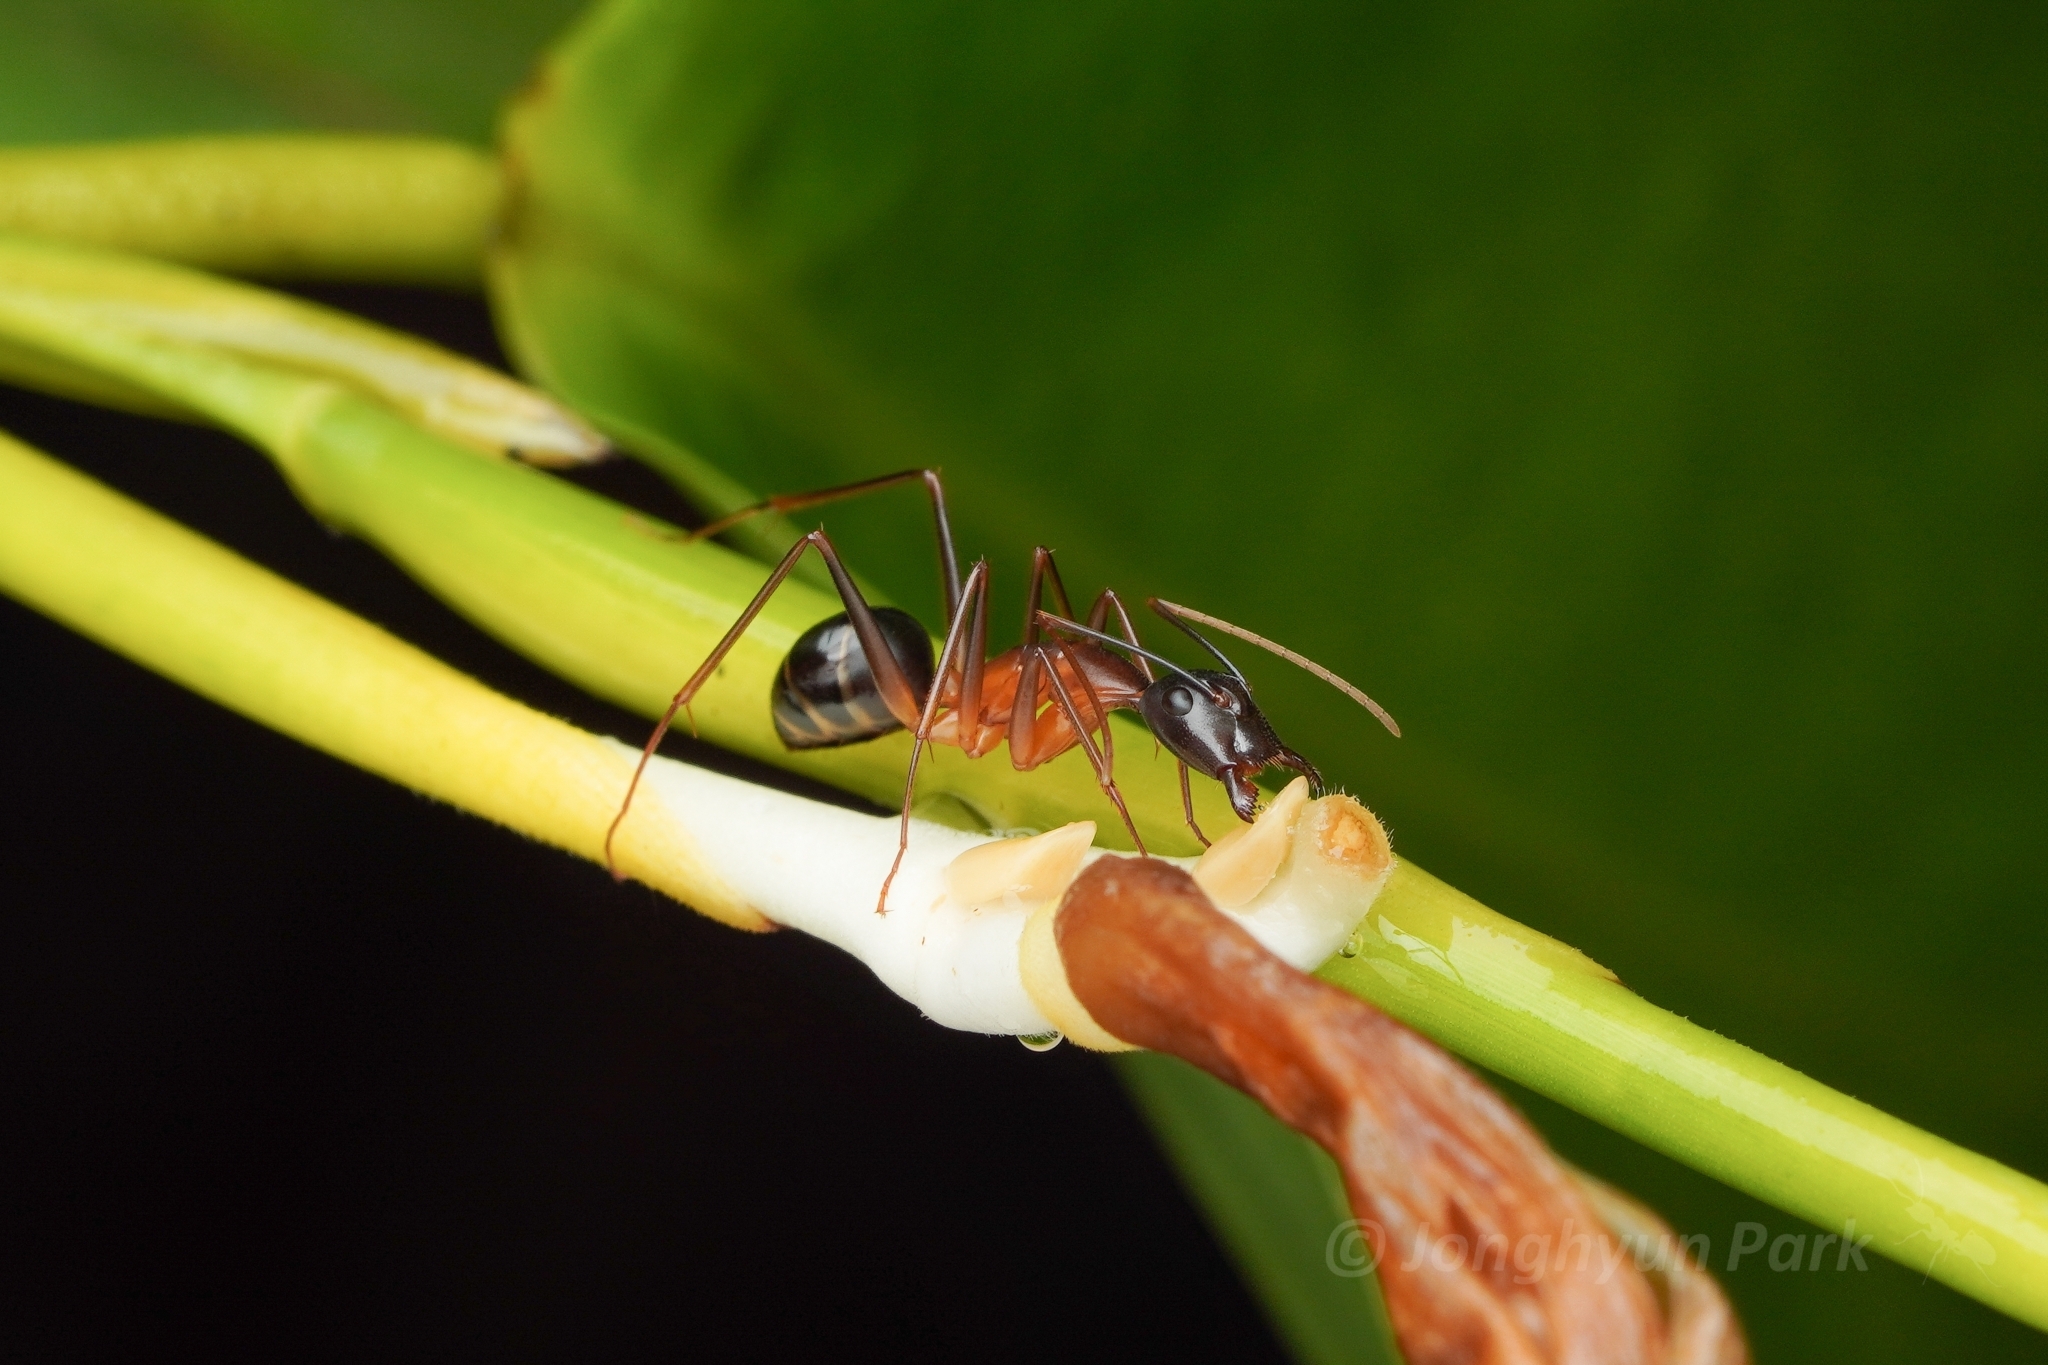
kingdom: Animalia
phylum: Arthropoda
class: Insecta
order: Hymenoptera
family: Formicidae
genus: Camponotus
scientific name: Camponotus festinus
